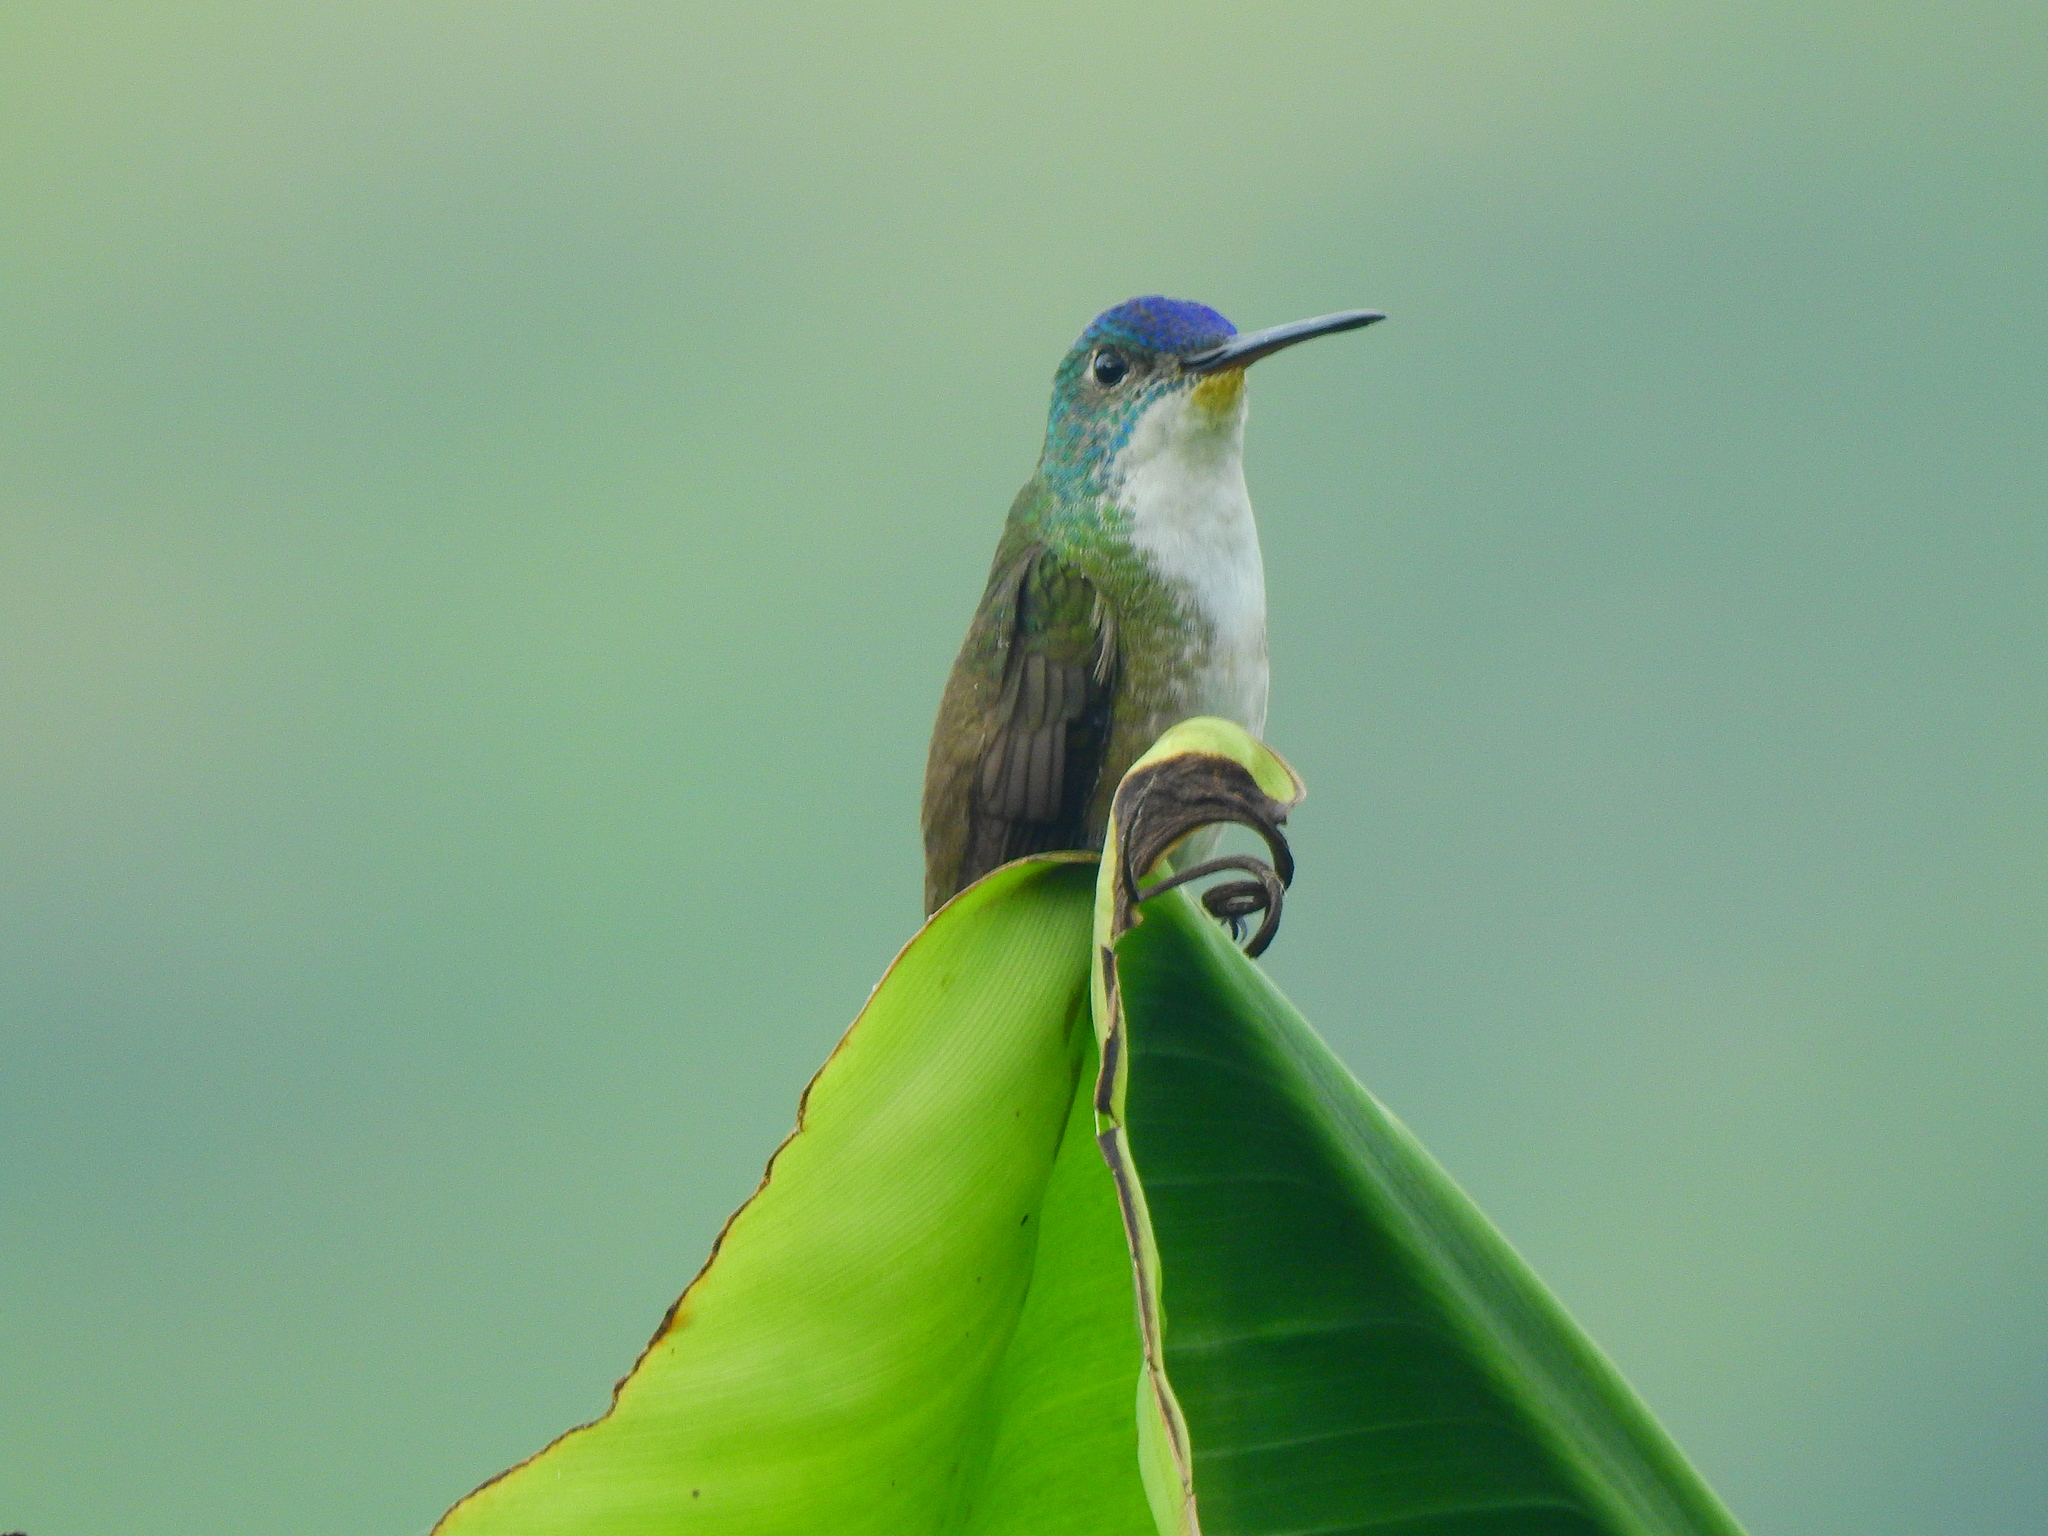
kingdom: Animalia
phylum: Chordata
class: Aves
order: Apodiformes
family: Trochilidae
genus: Saucerottia
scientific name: Saucerottia cyanocephala
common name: Azure-crowned hummingbird
